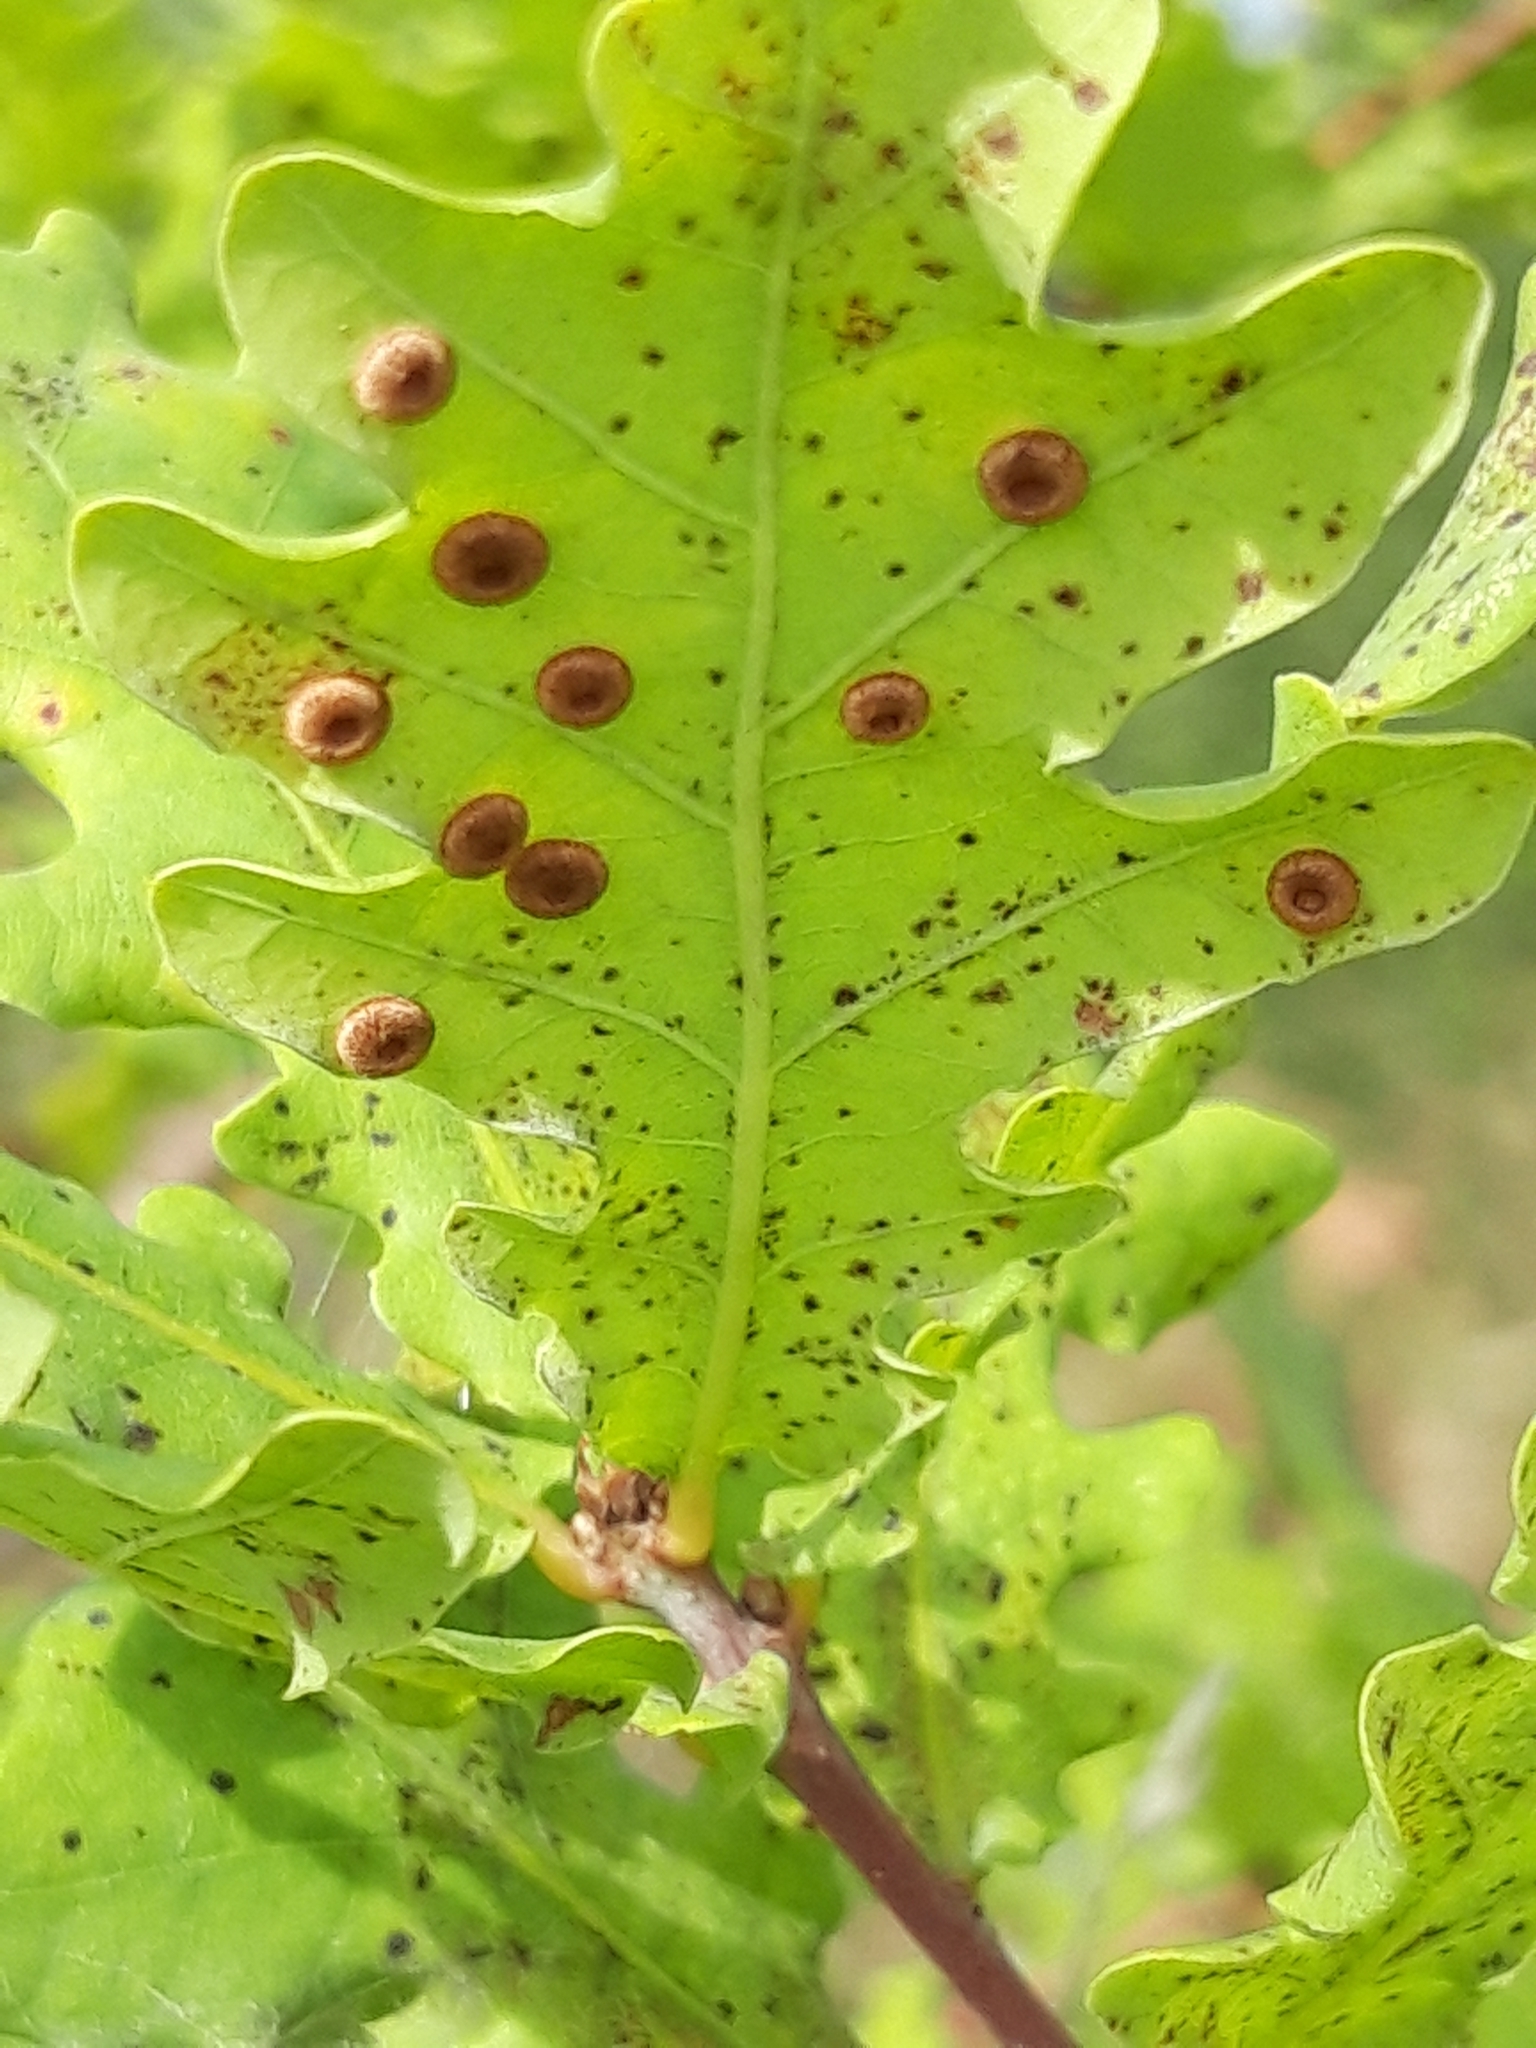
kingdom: Animalia
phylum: Arthropoda
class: Insecta
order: Hymenoptera
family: Cynipidae
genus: Neuroterus
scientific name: Neuroterus numismalis
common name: Silk-button spangle gall
